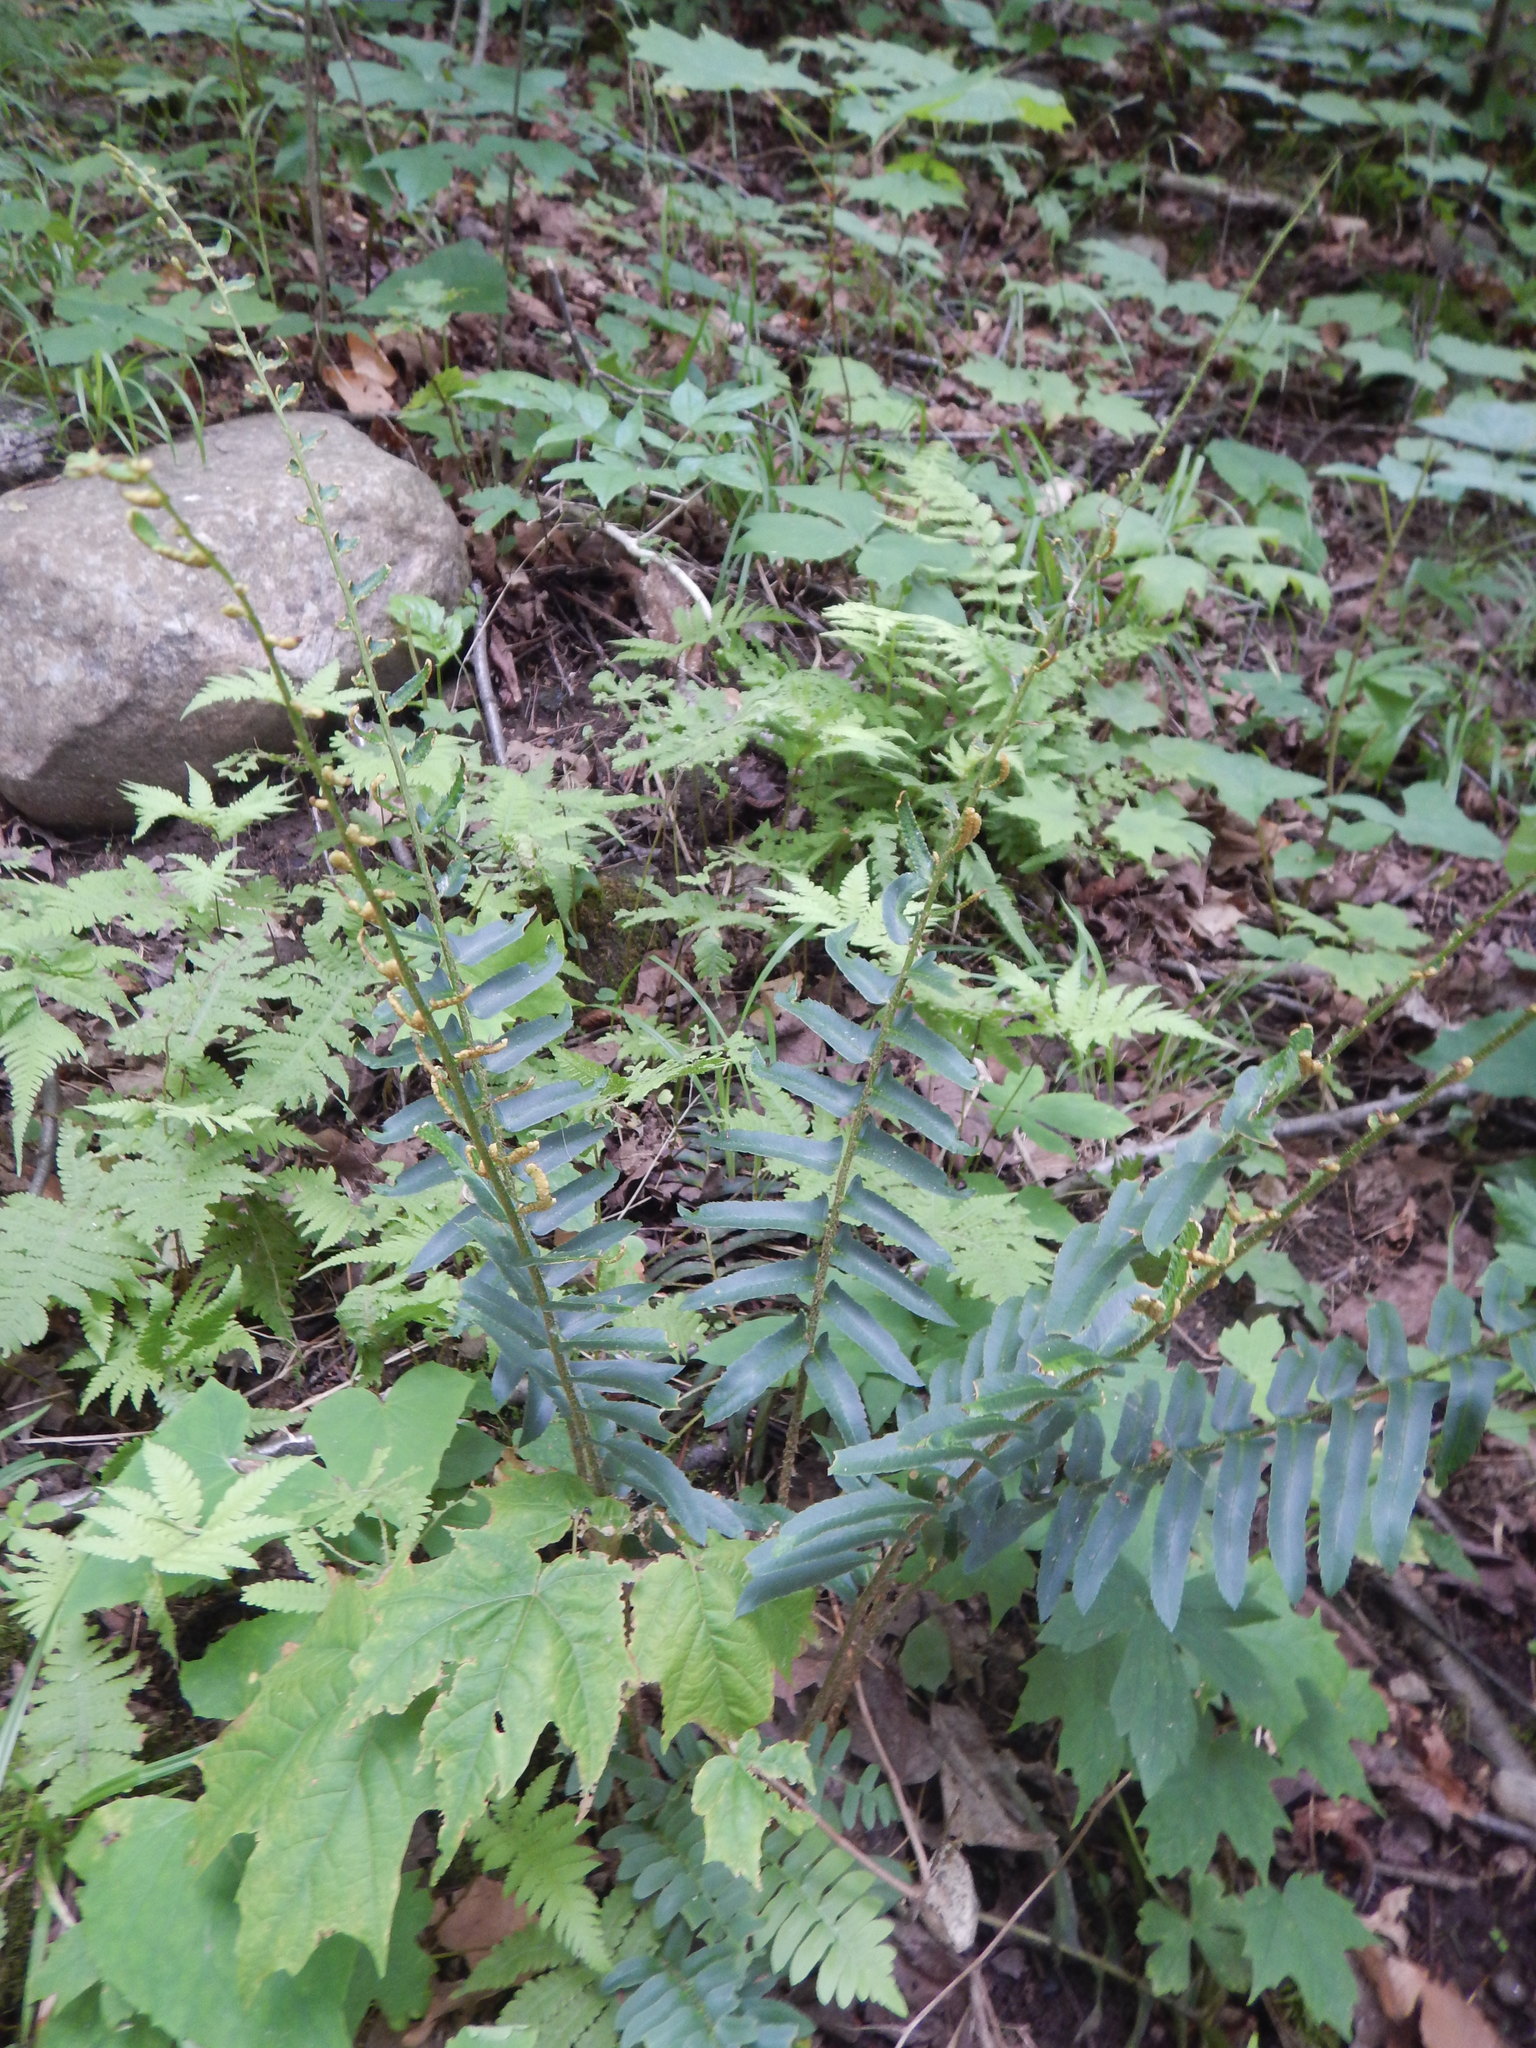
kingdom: Plantae
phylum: Tracheophyta
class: Polypodiopsida
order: Polypodiales
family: Dryopteridaceae
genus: Polystichum
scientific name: Polystichum acrostichoides
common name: Christmas fern
